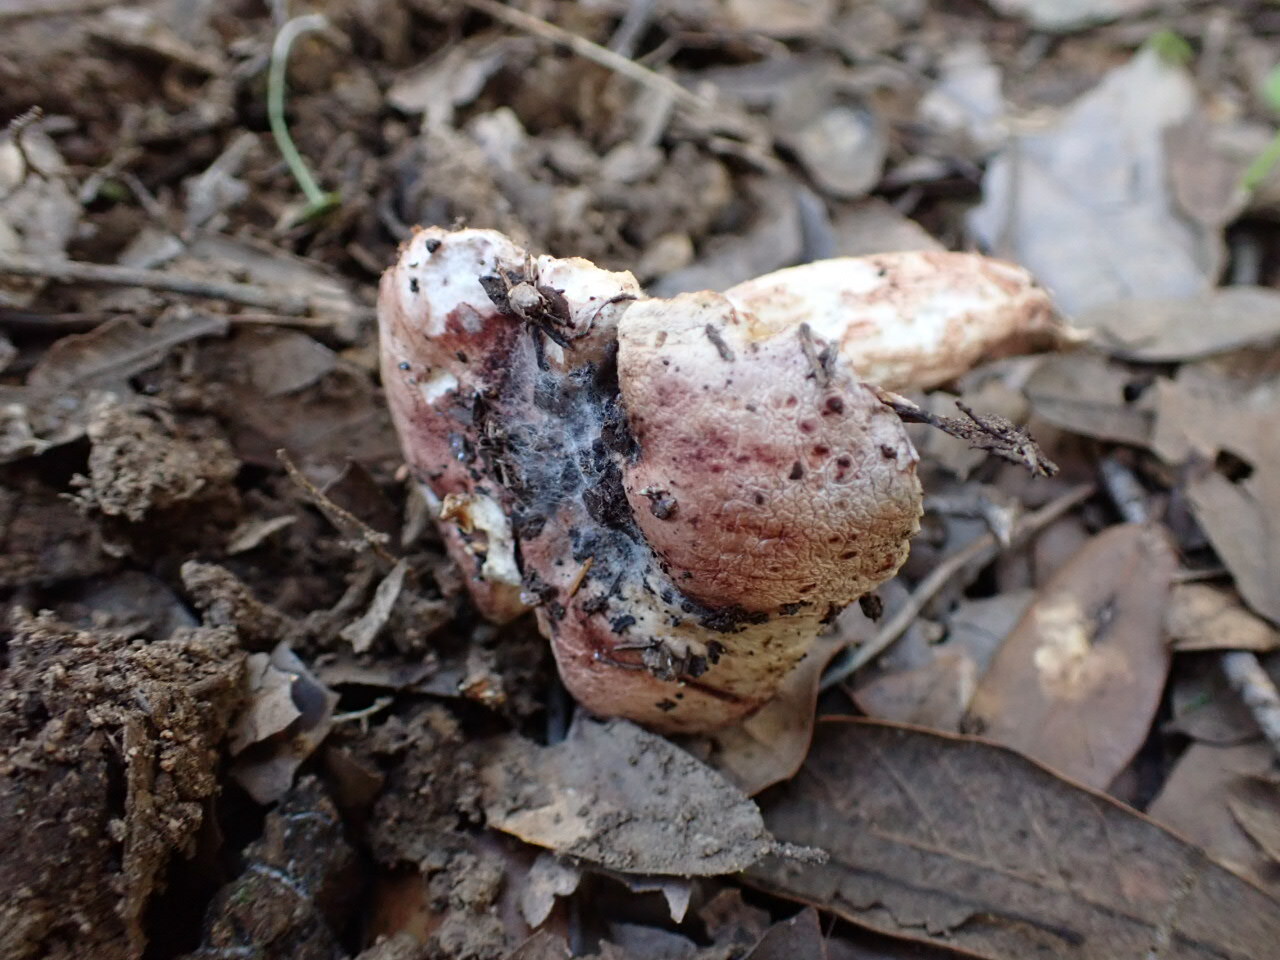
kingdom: Fungi
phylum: Basidiomycota
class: Agaricomycetes
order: Agaricales
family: Hygrophoraceae
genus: Hygrophorus
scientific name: Hygrophorus russula
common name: Pinkmottle woodwax
